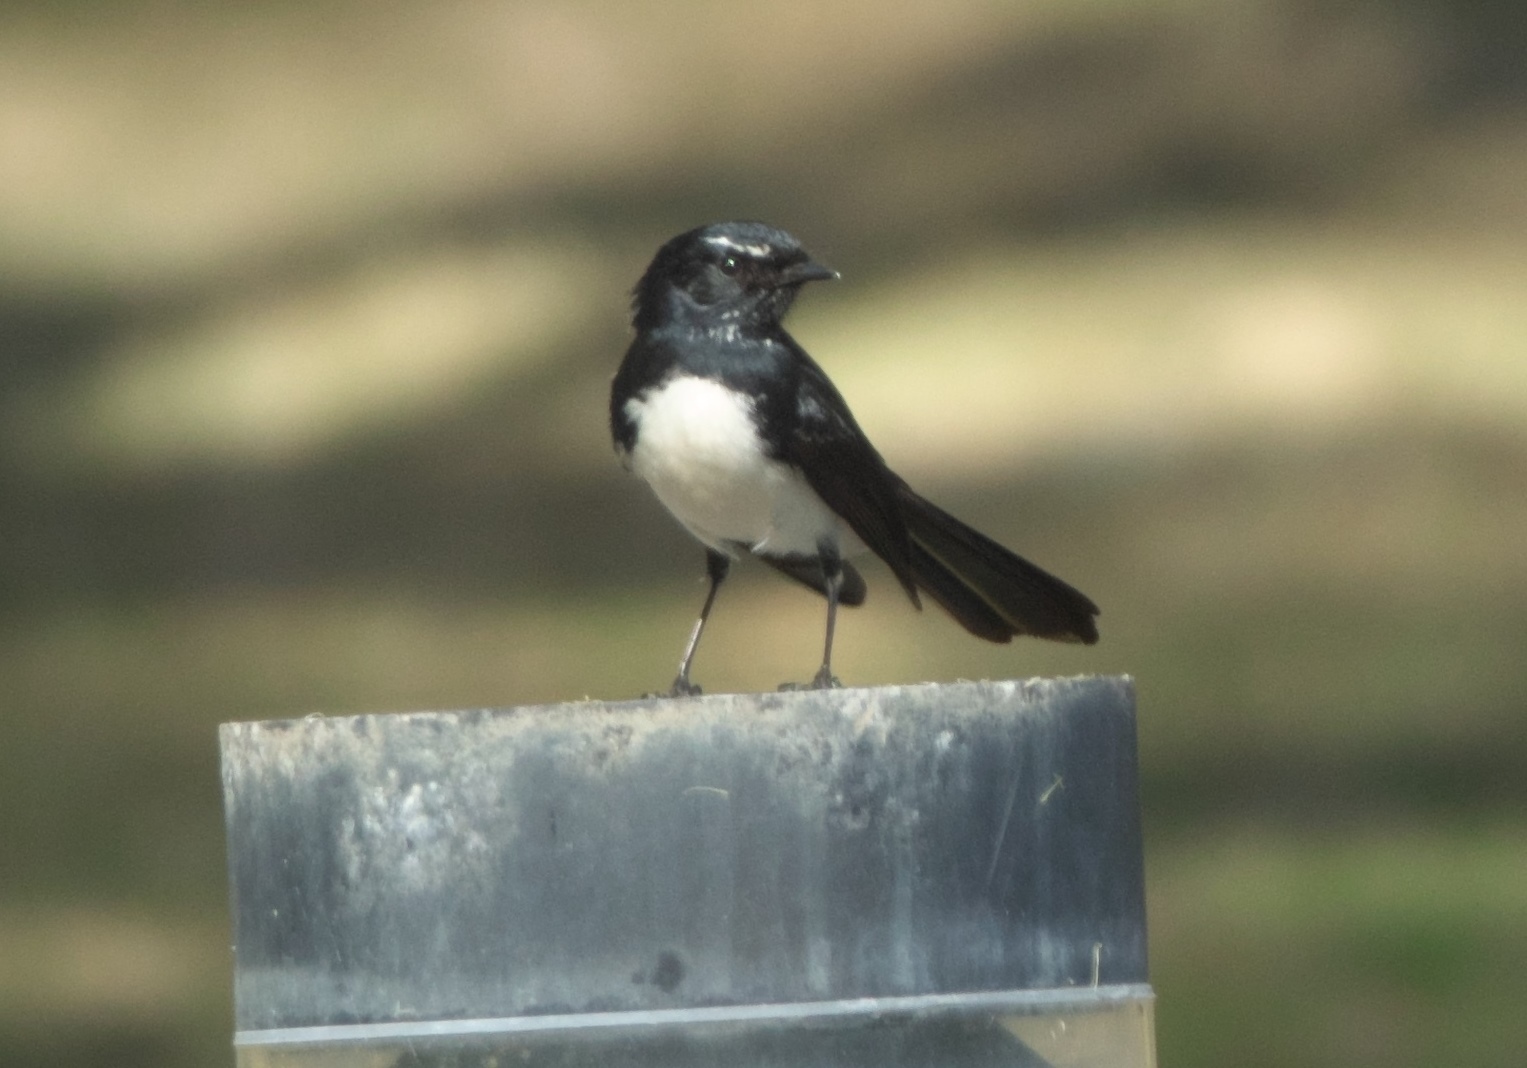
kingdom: Animalia
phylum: Chordata
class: Aves
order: Passeriformes
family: Rhipiduridae
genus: Rhipidura
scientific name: Rhipidura leucophrys
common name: Willie wagtail
